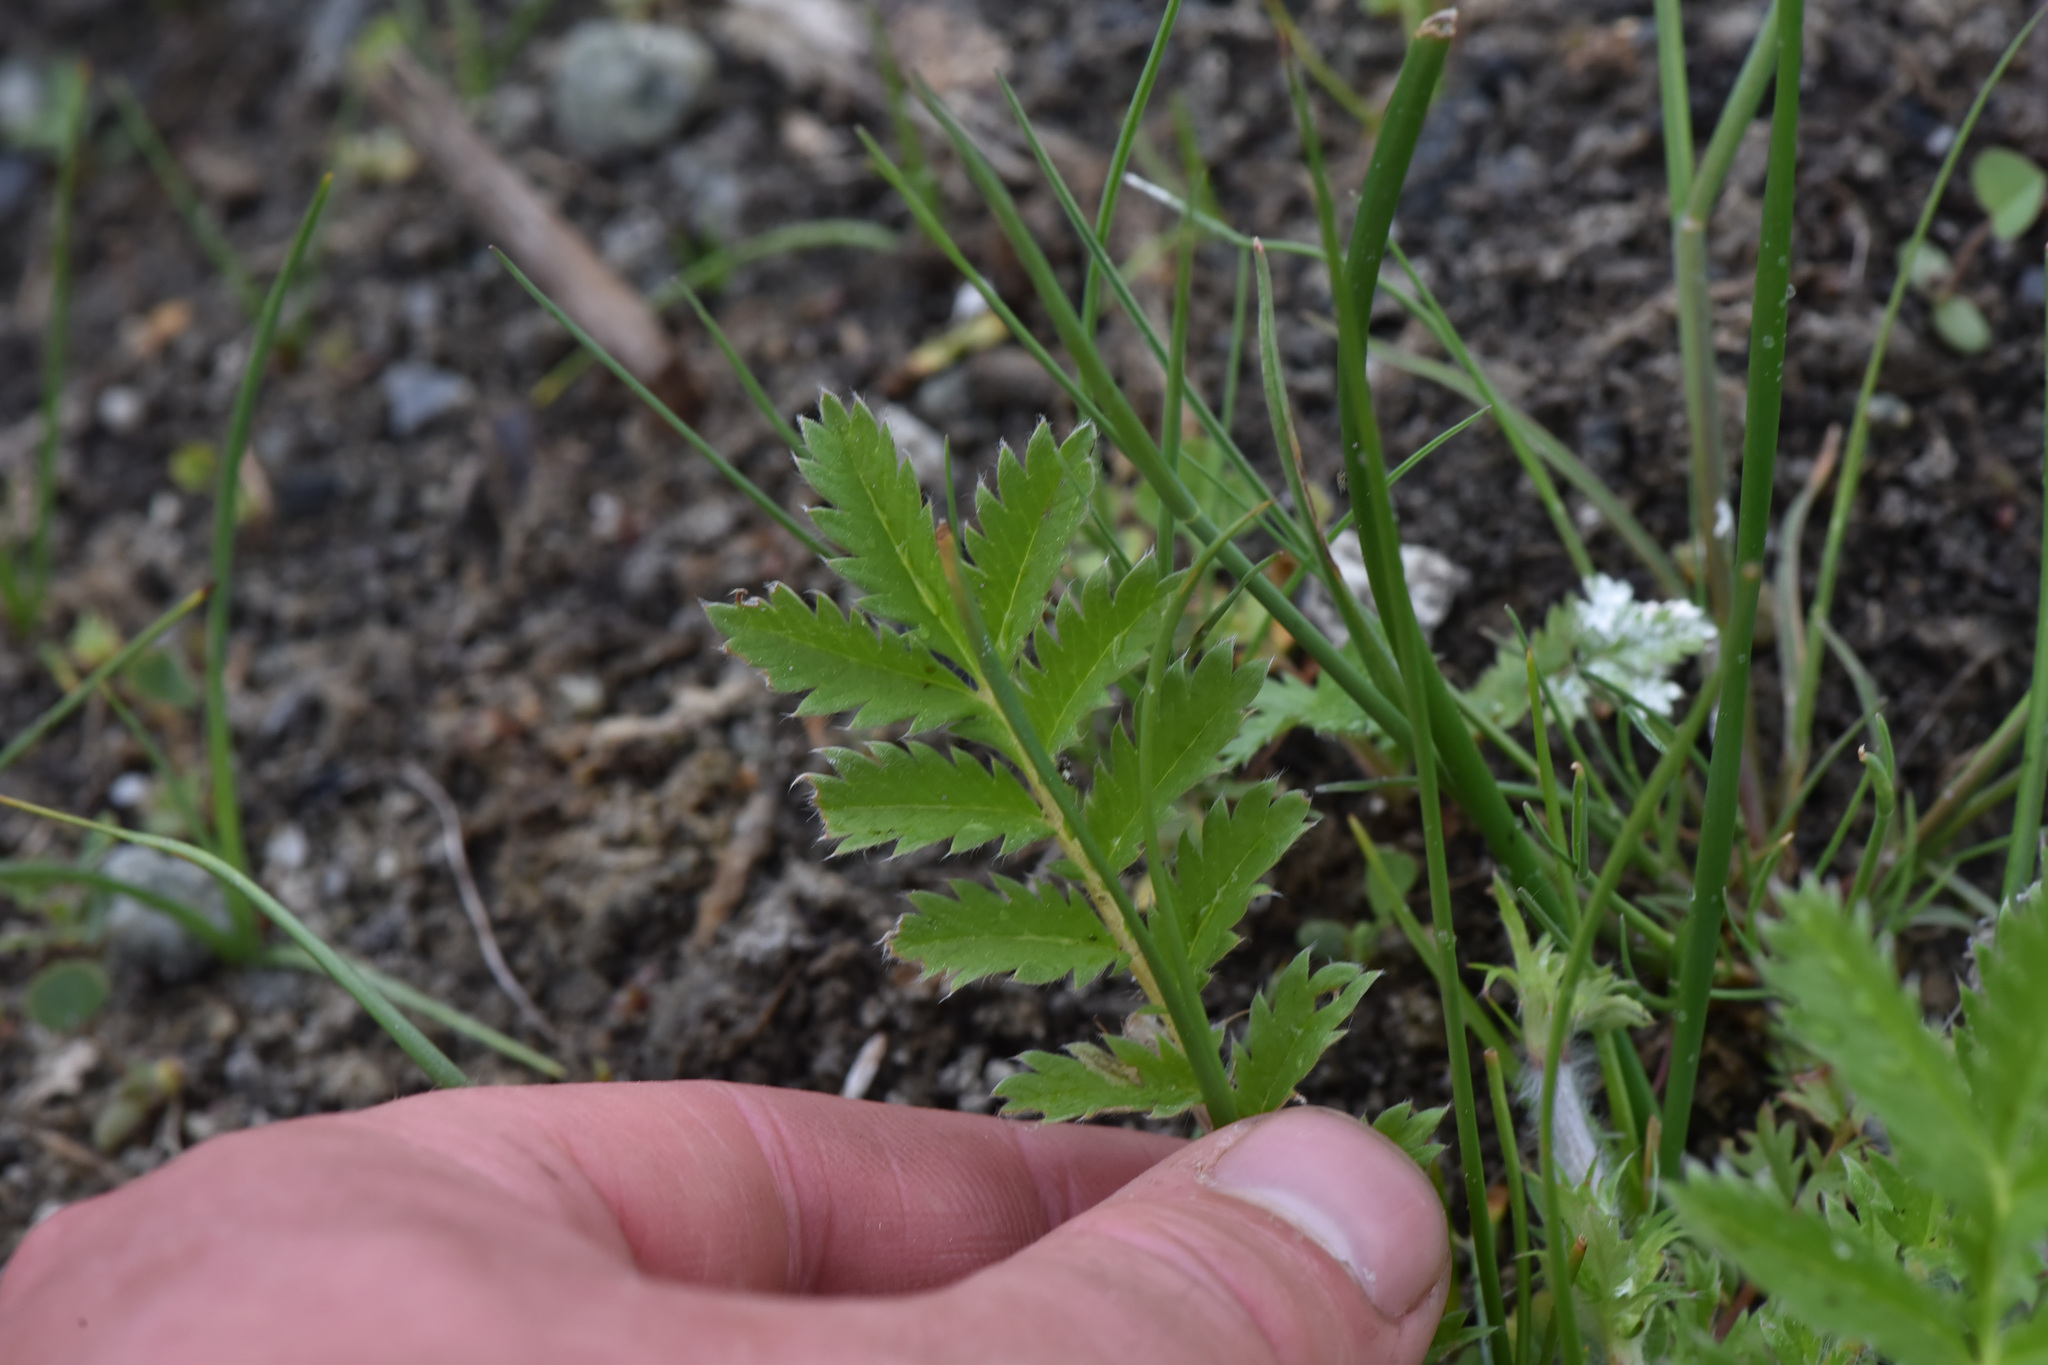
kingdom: Plantae
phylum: Tracheophyta
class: Magnoliopsida
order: Rosales
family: Rosaceae
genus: Argentina
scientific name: Argentina anserina
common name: Common silverweed
